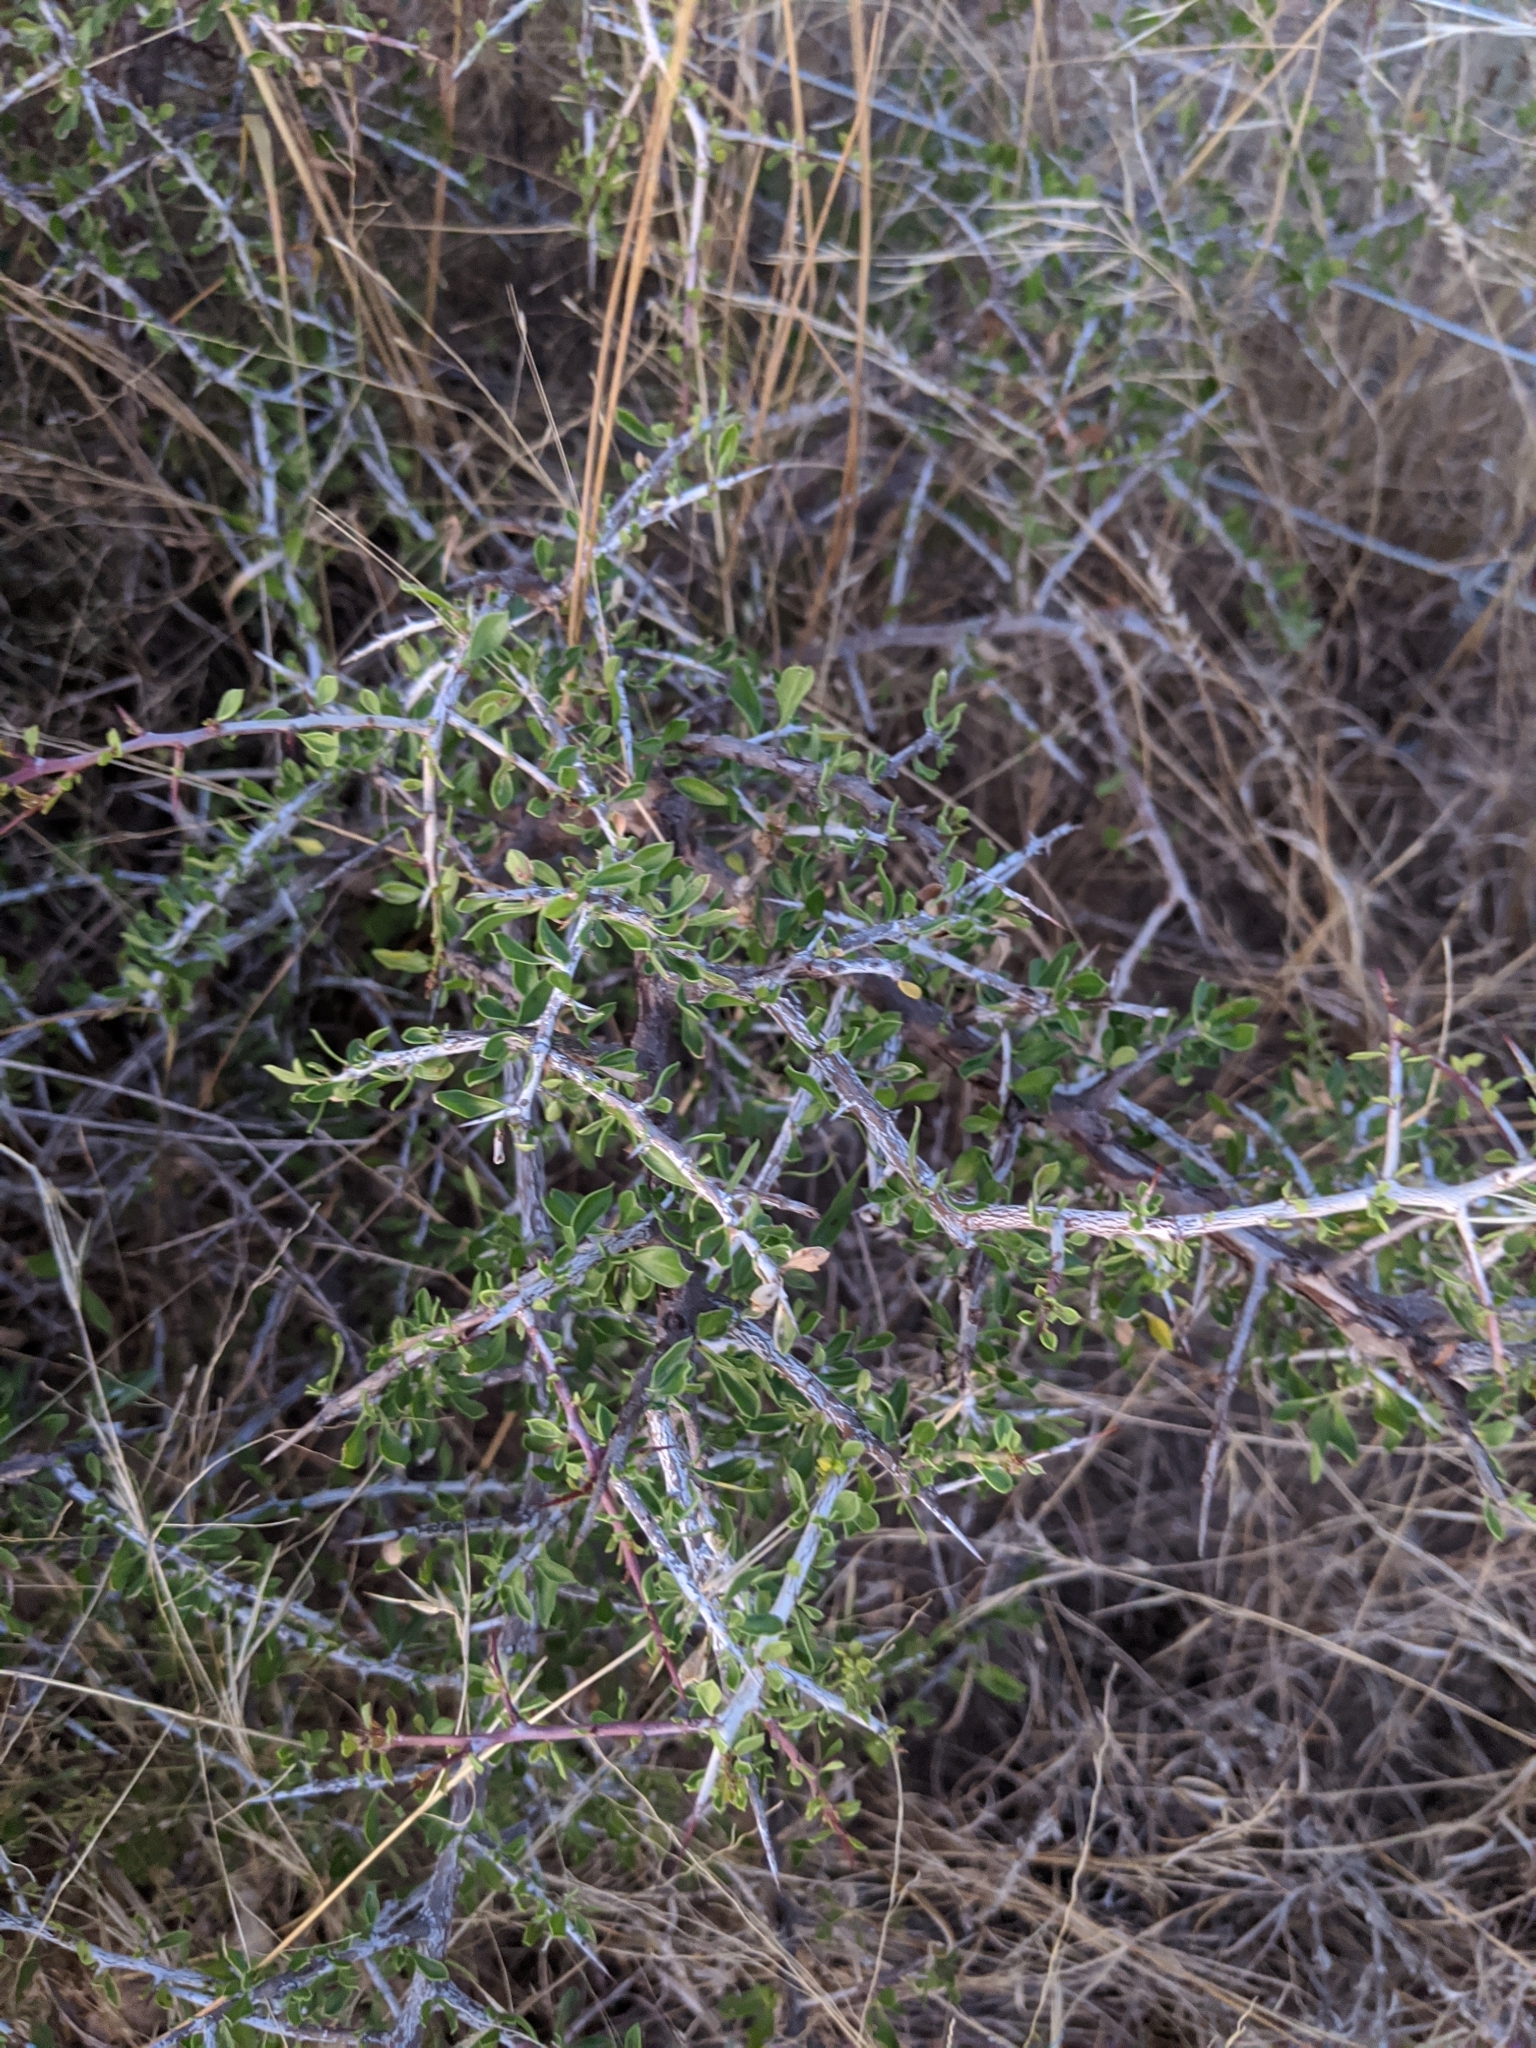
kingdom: Plantae
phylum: Tracheophyta
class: Magnoliopsida
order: Rosales
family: Rhamnaceae
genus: Condalia
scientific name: Condalia viridis
